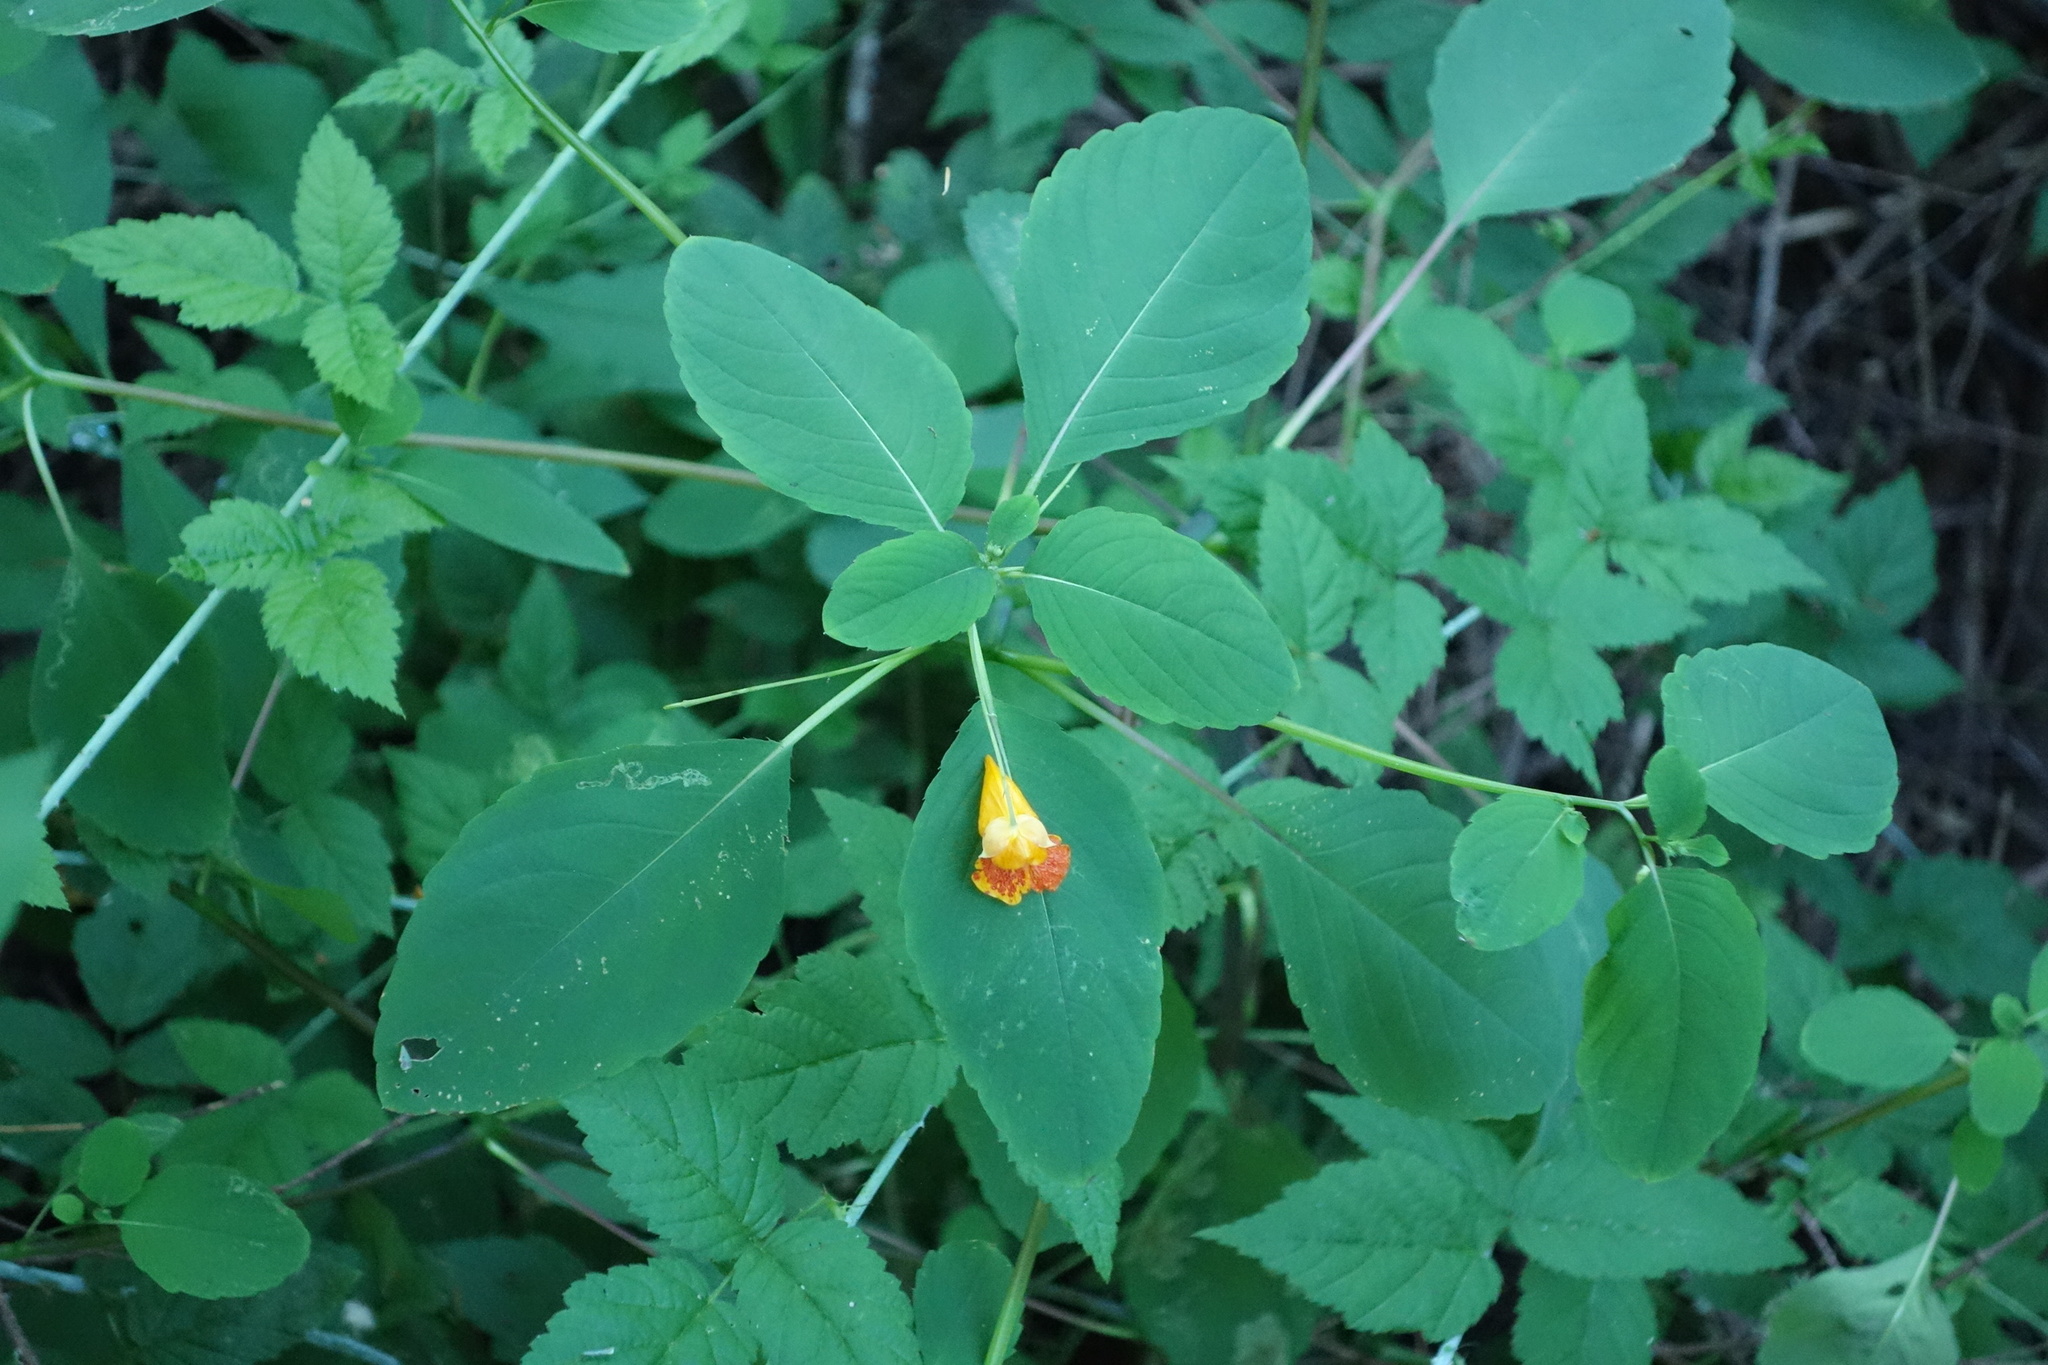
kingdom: Plantae
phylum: Tracheophyta
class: Magnoliopsida
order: Ericales
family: Balsaminaceae
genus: Impatiens
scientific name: Impatiens capensis
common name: Orange balsam
